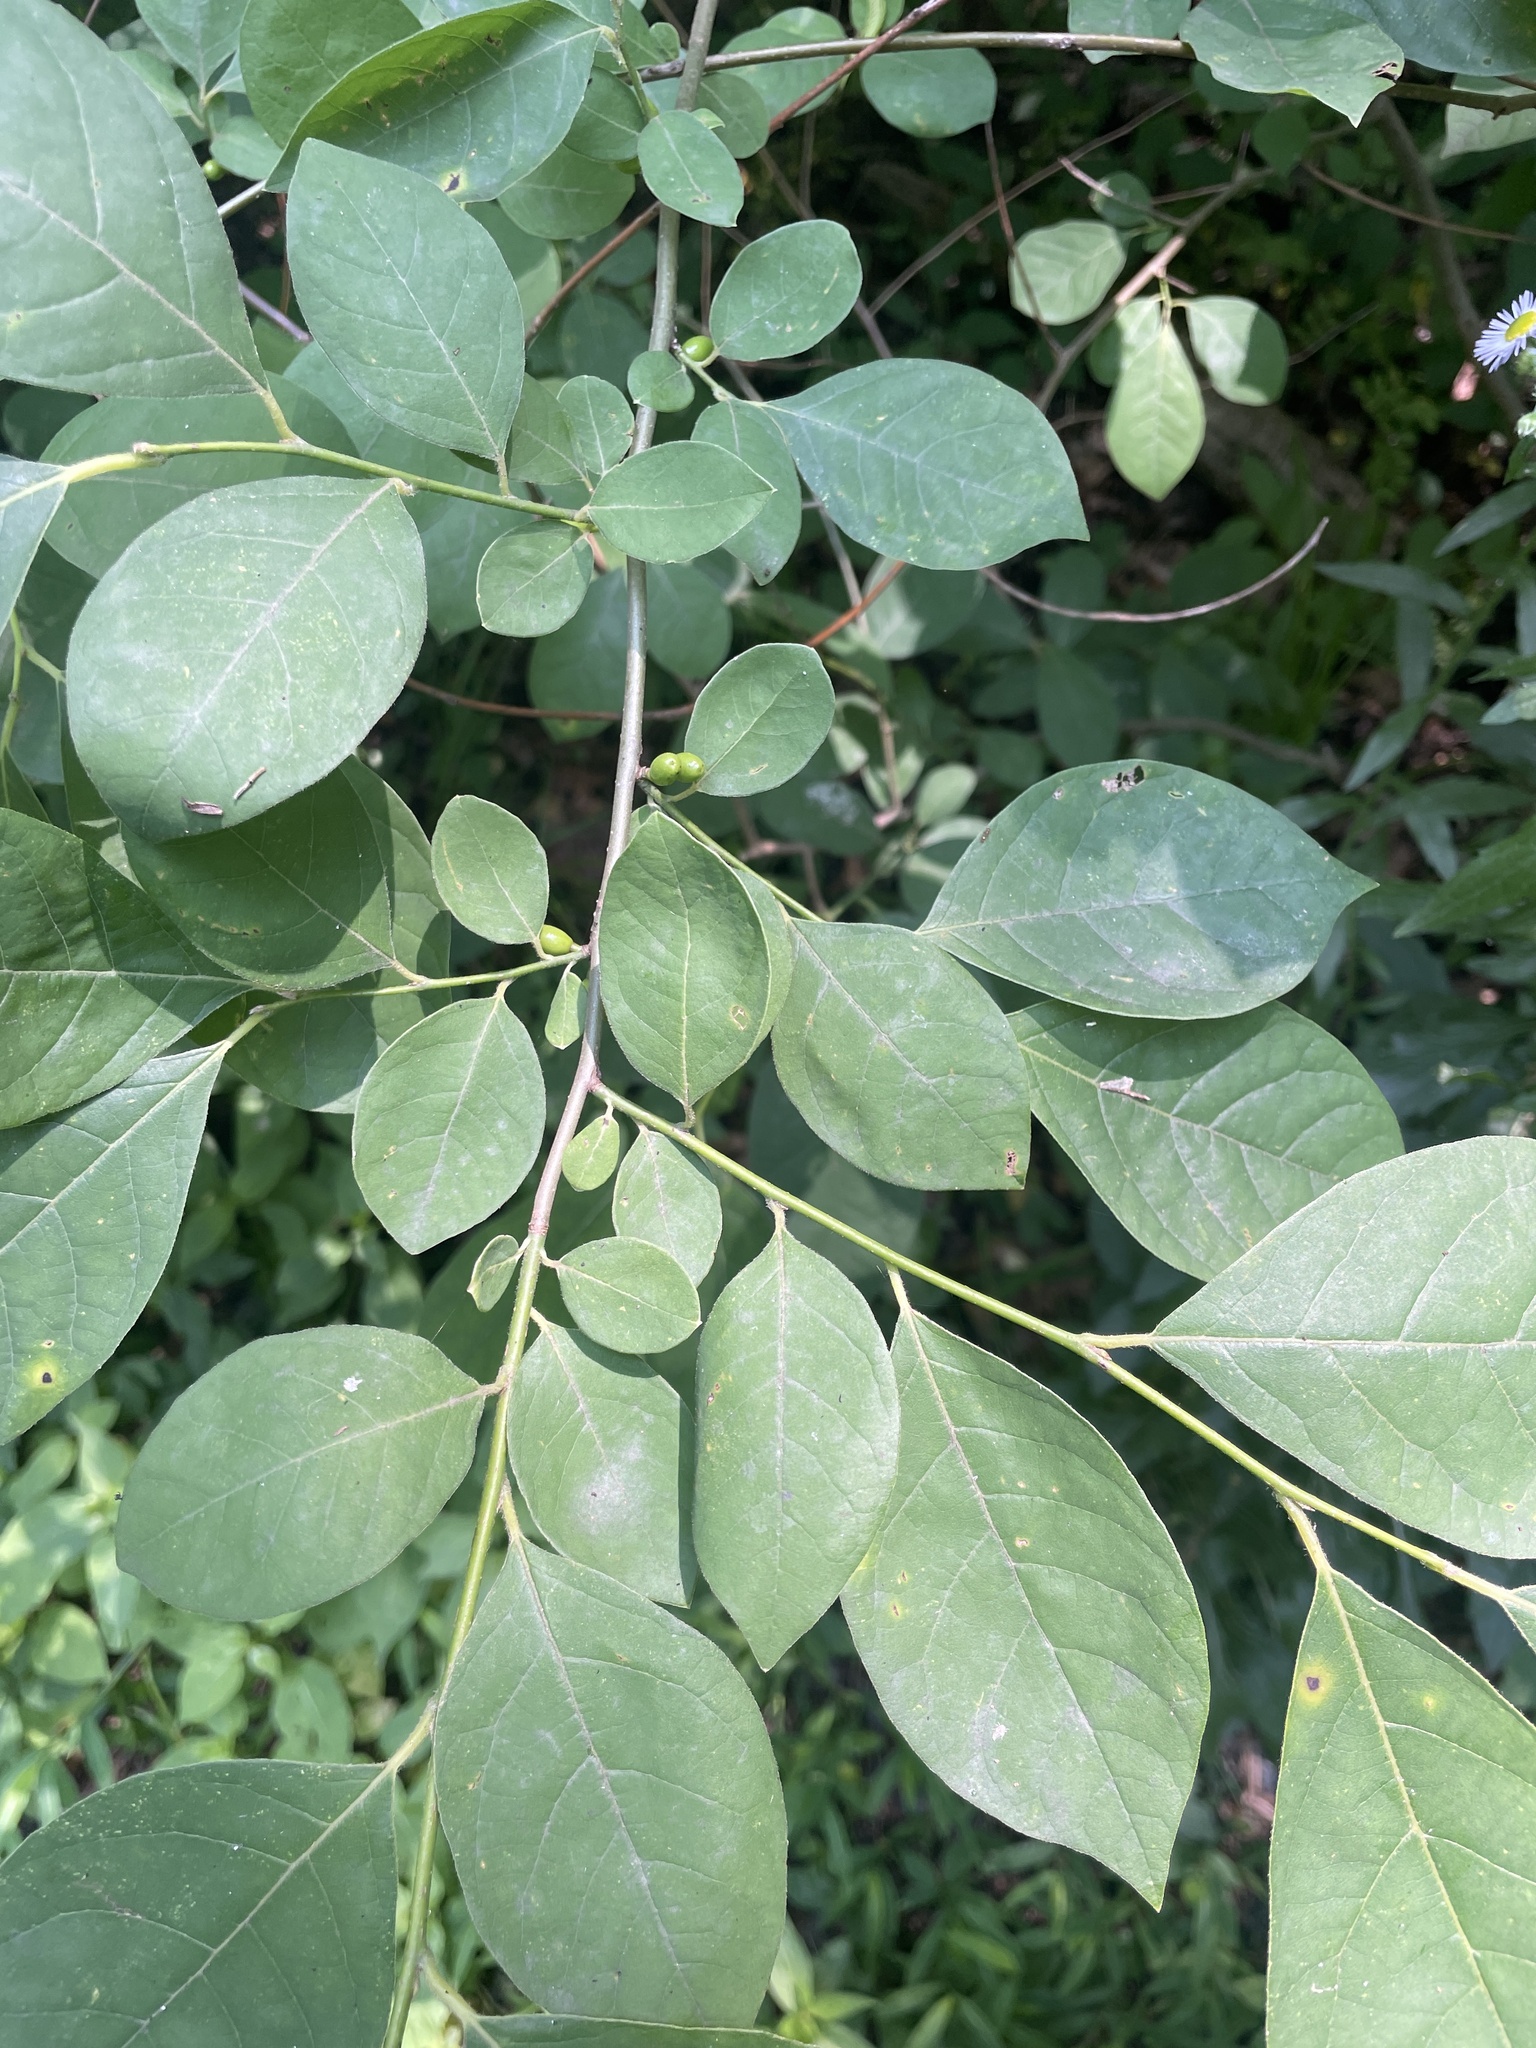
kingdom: Plantae
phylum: Tracheophyta
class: Magnoliopsida
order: Laurales
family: Lauraceae
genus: Lindera
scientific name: Lindera benzoin
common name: Spicebush
